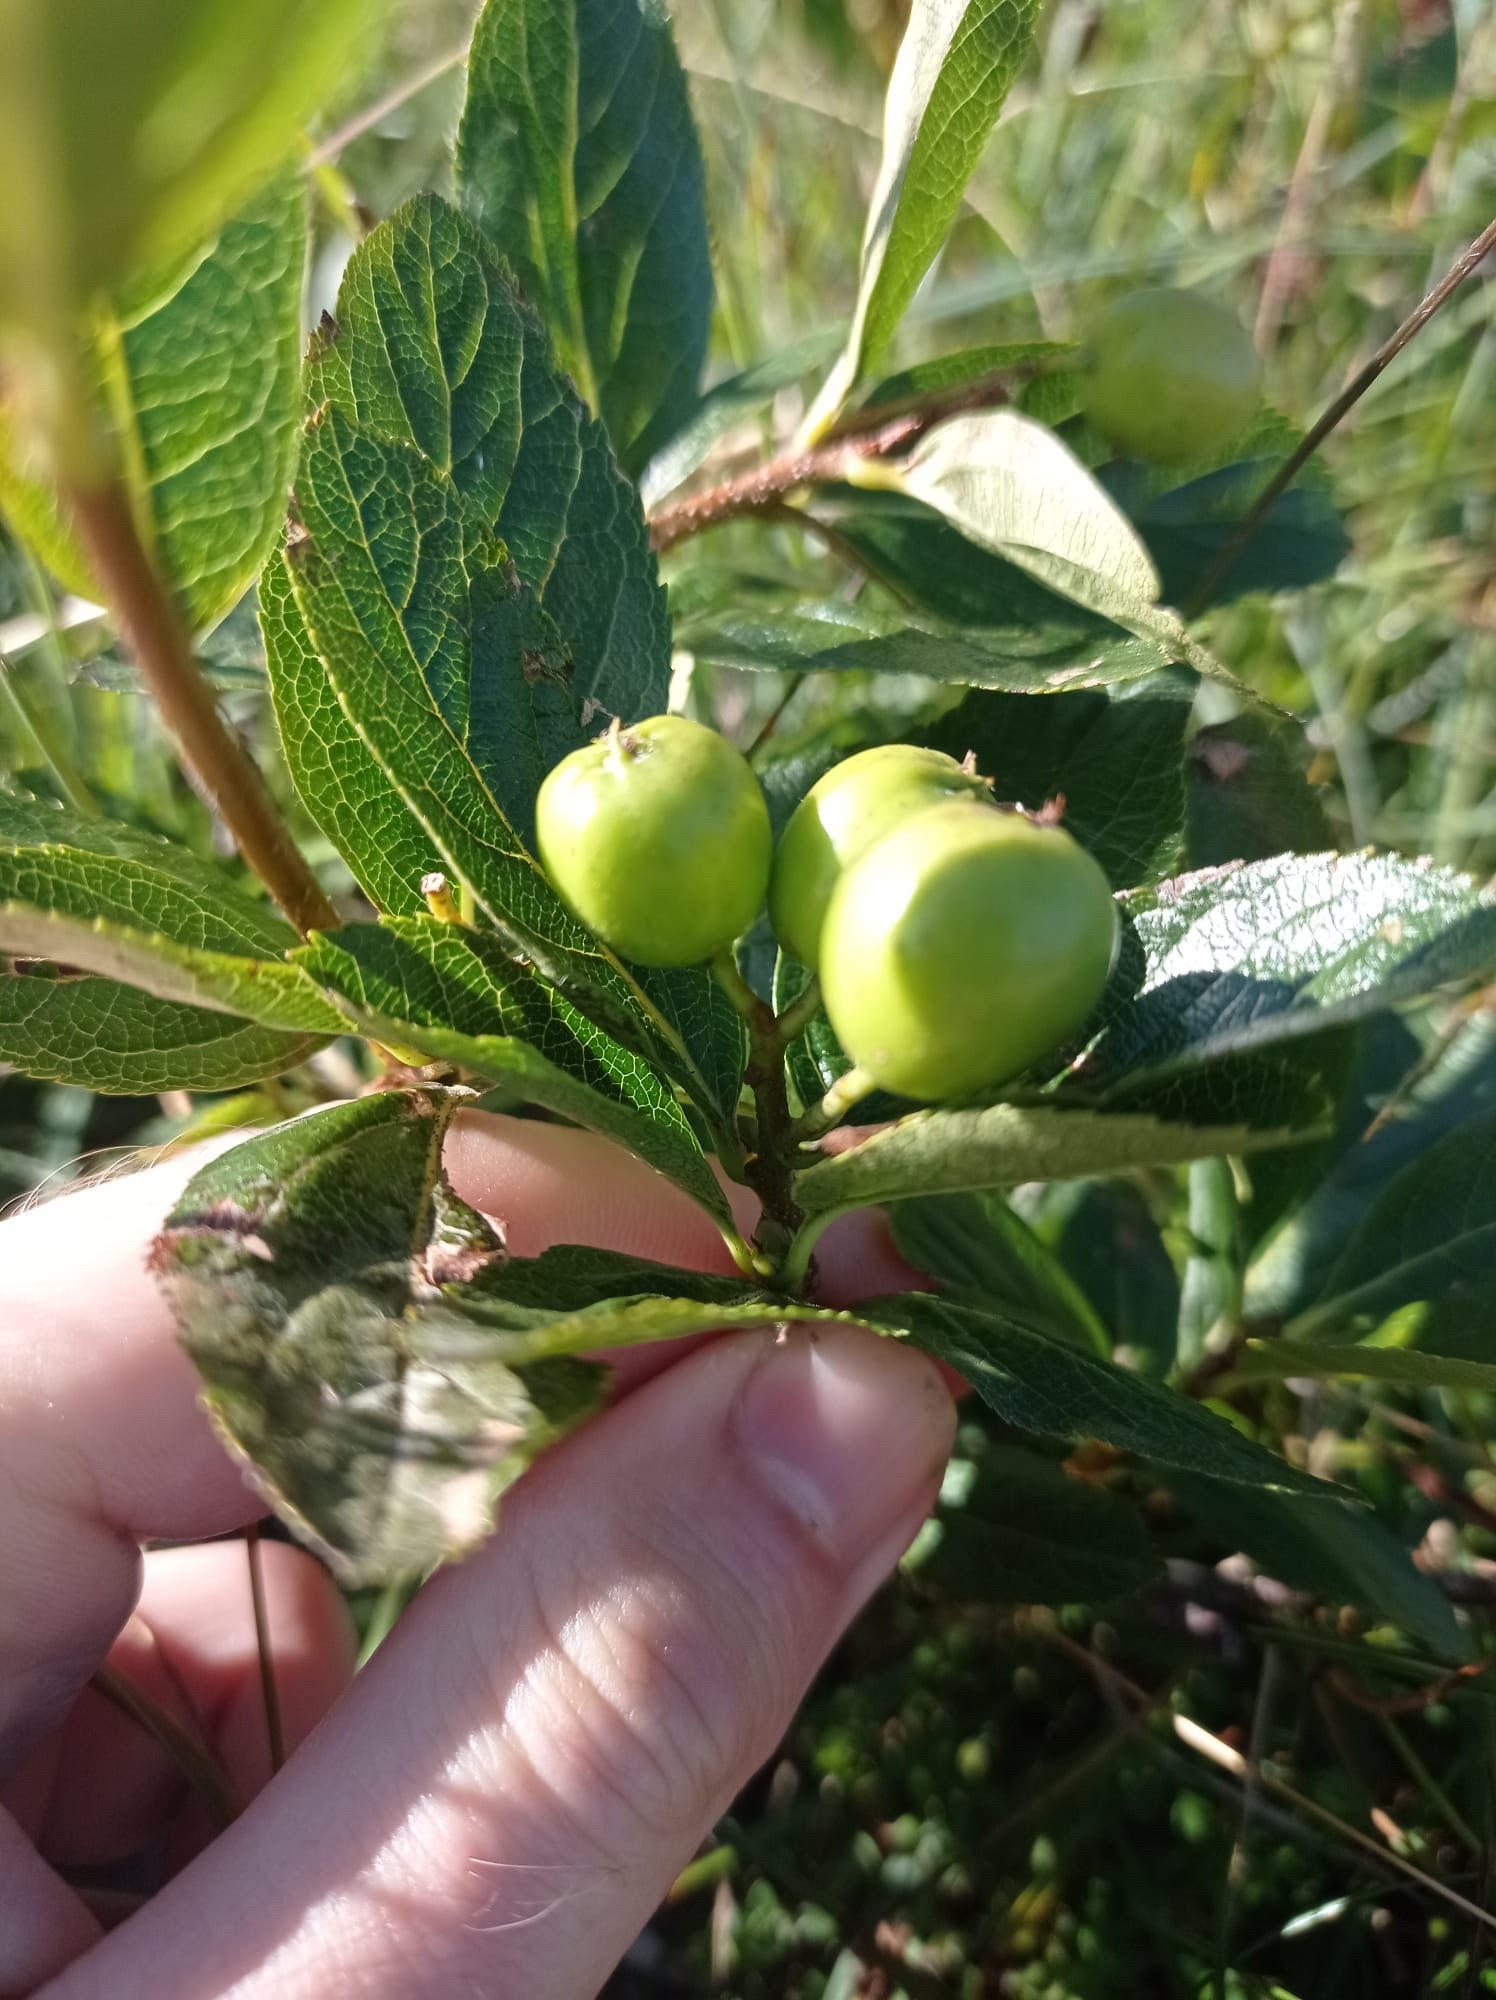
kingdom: Plantae
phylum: Tracheophyta
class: Magnoliopsida
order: Rosales
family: Rosaceae
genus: Chamaemespilus
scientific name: Chamaemespilus alpina
